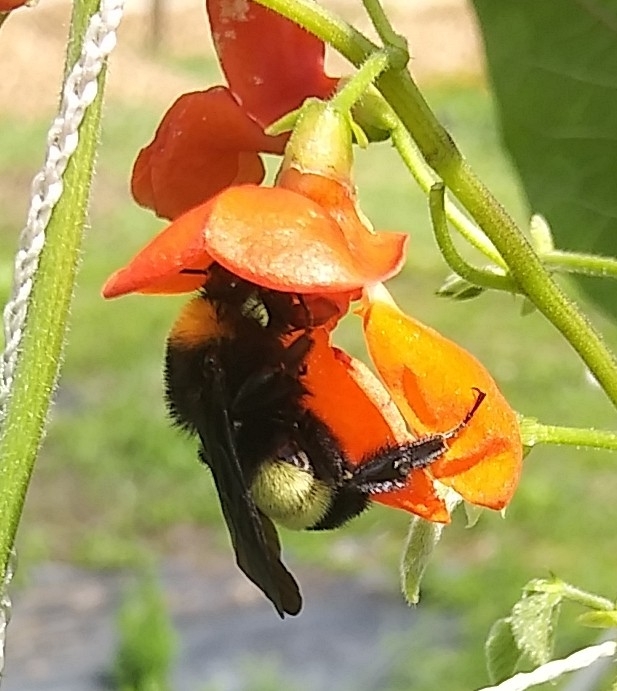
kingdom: Animalia
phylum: Arthropoda
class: Insecta
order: Hymenoptera
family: Apidae
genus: Bombus
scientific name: Bombus pensylvanicus
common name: Bumble bee
